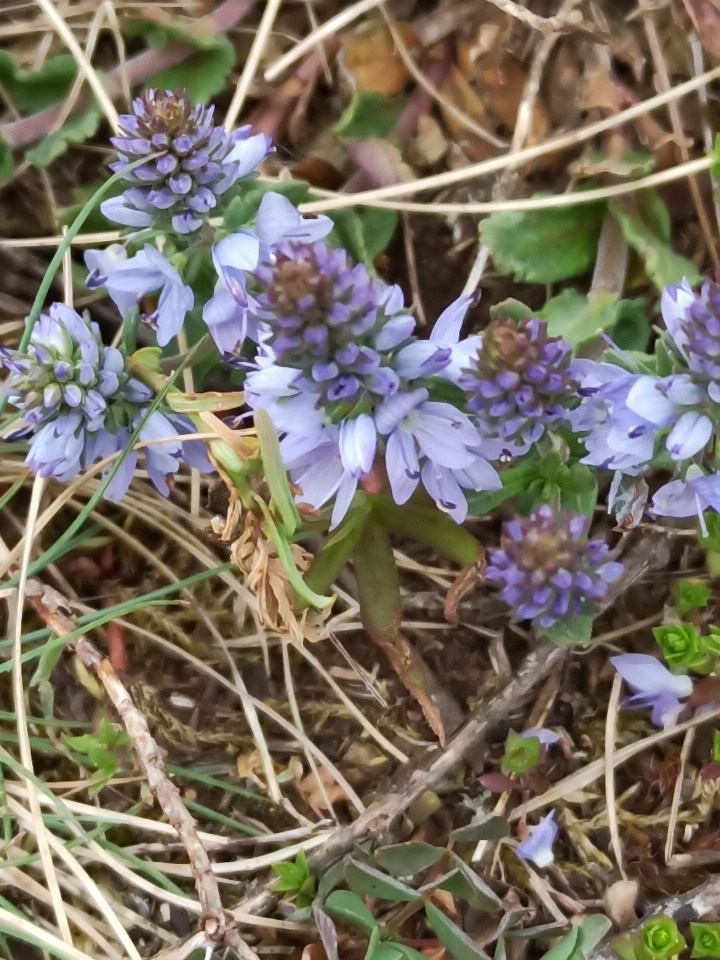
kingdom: Plantae
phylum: Tracheophyta
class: Magnoliopsida
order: Lamiales
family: Plantaginaceae
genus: Veronica
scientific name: Veronica prostrata
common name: Prostrate speedwell
